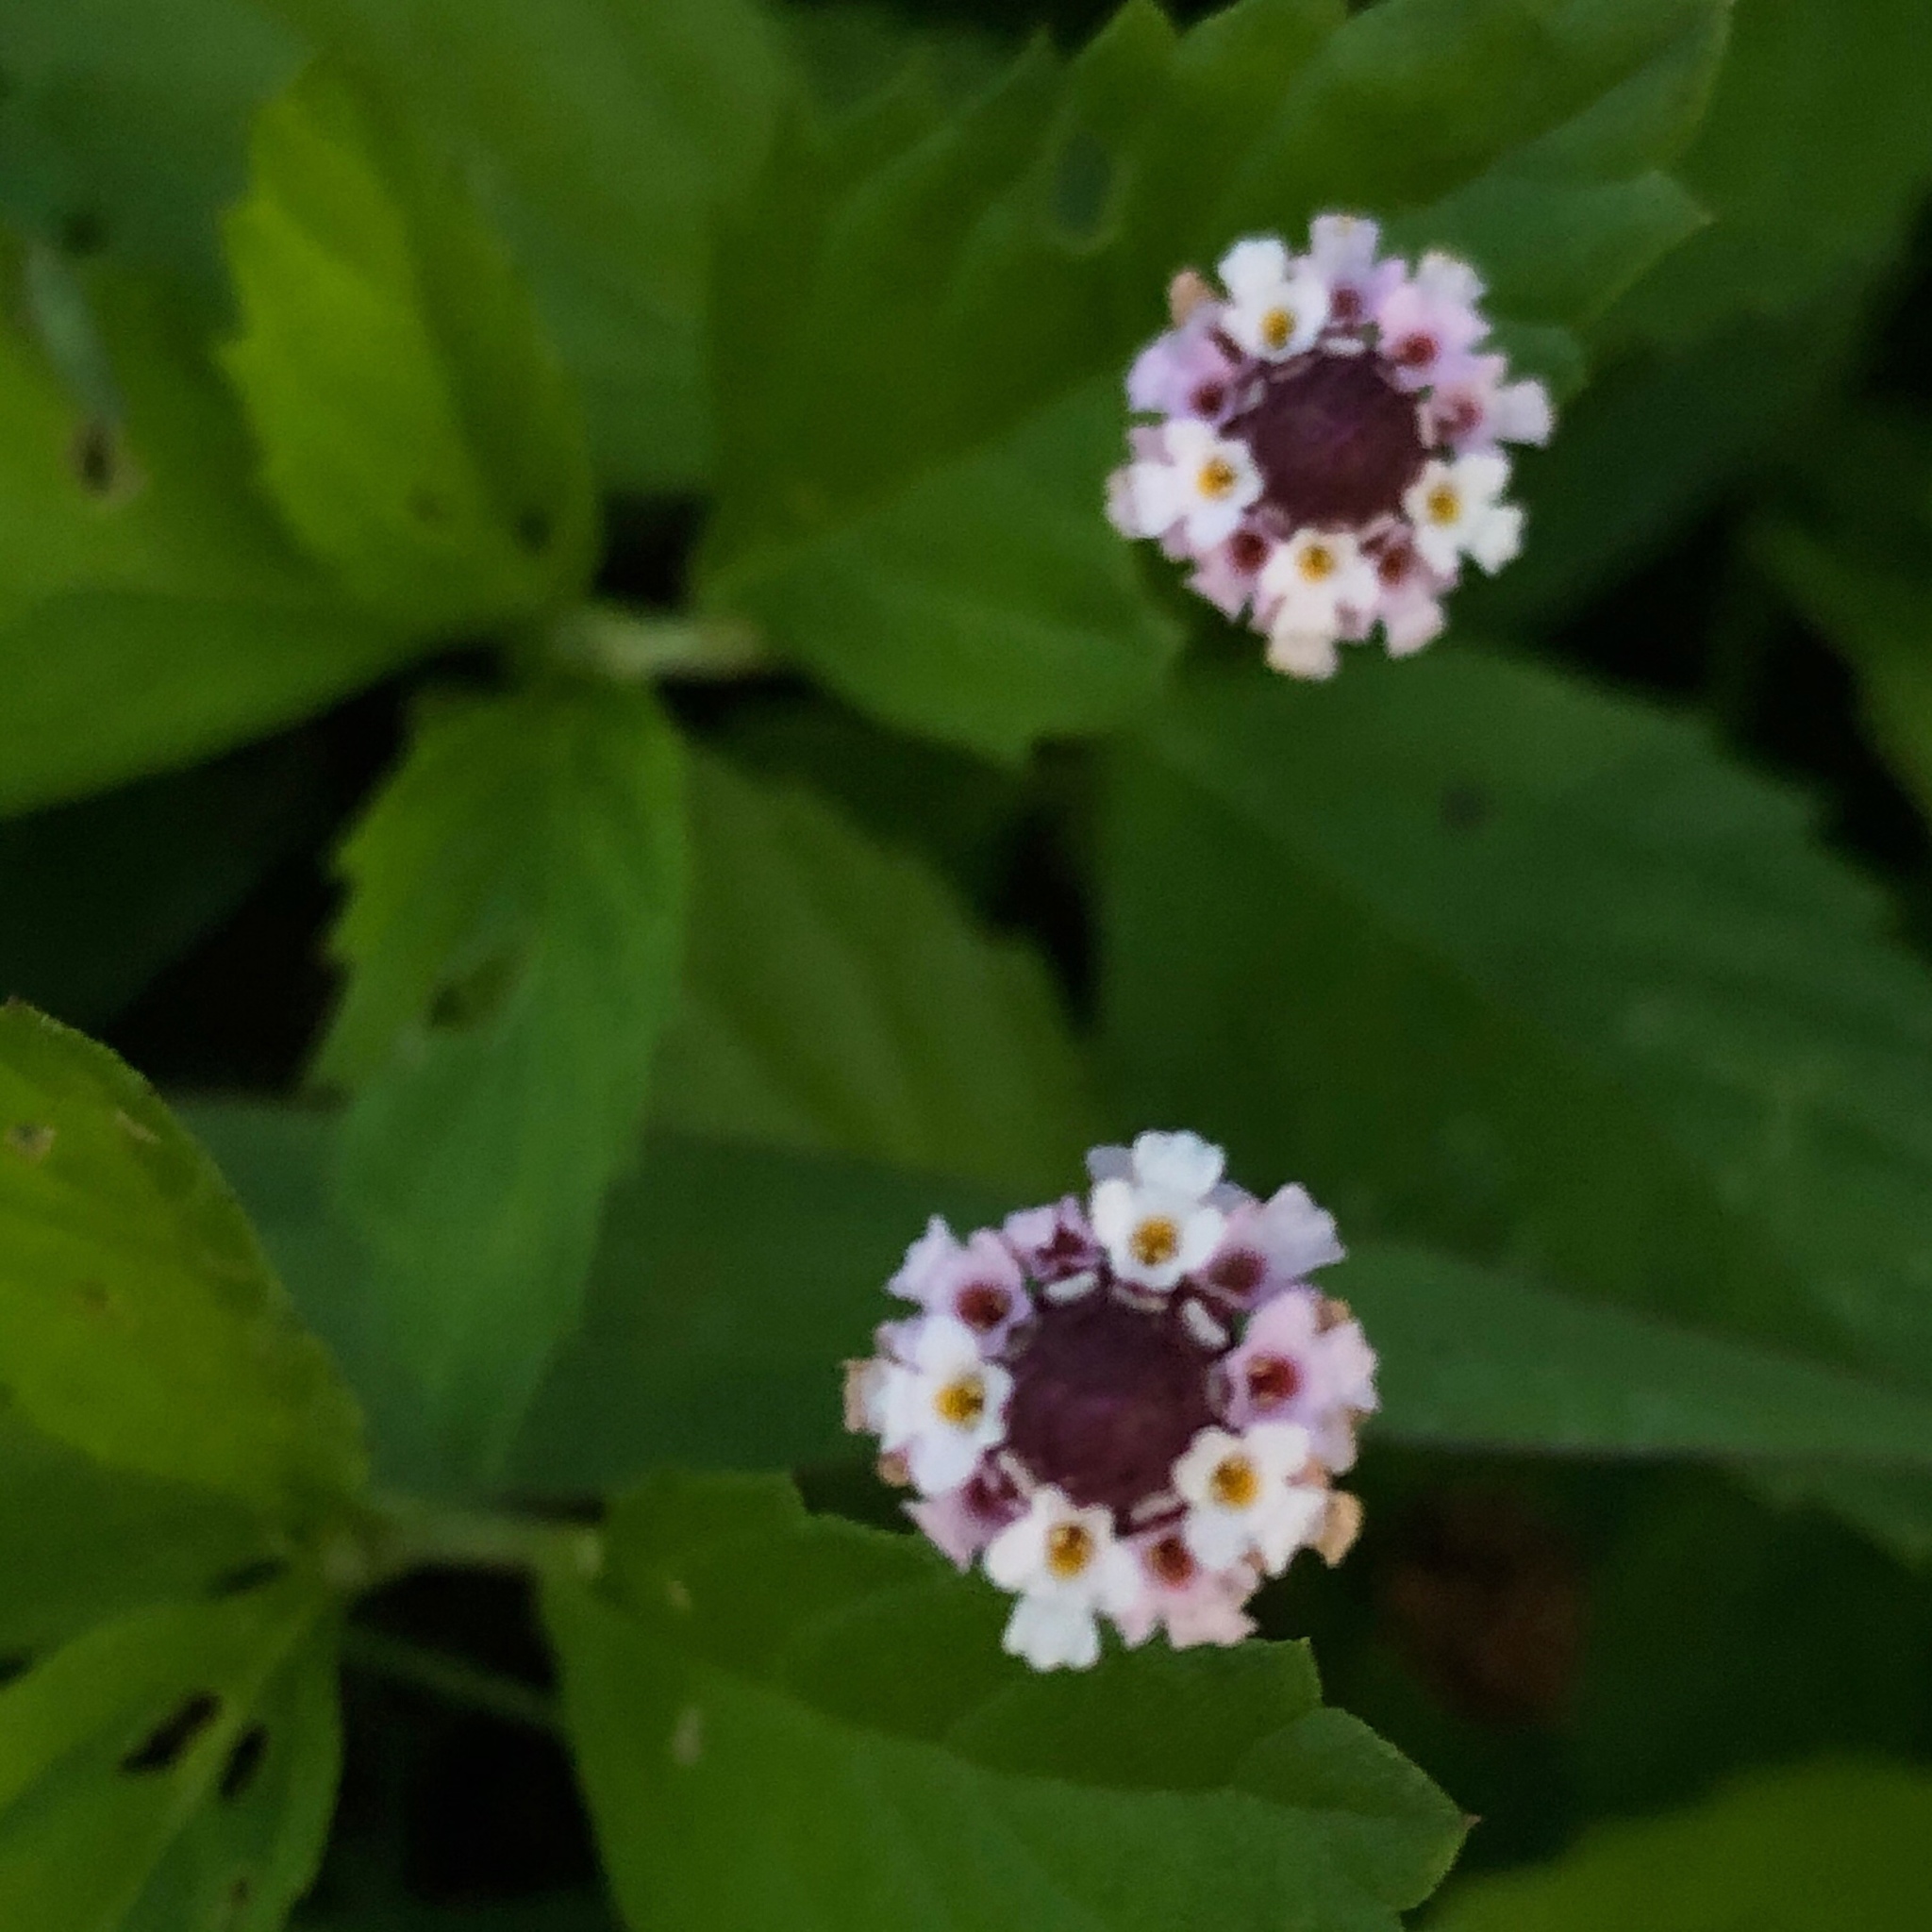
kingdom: Plantae
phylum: Tracheophyta
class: Magnoliopsida
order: Lamiales
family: Verbenaceae
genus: Phyla
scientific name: Phyla lanceolata
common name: Northern fogfruit
